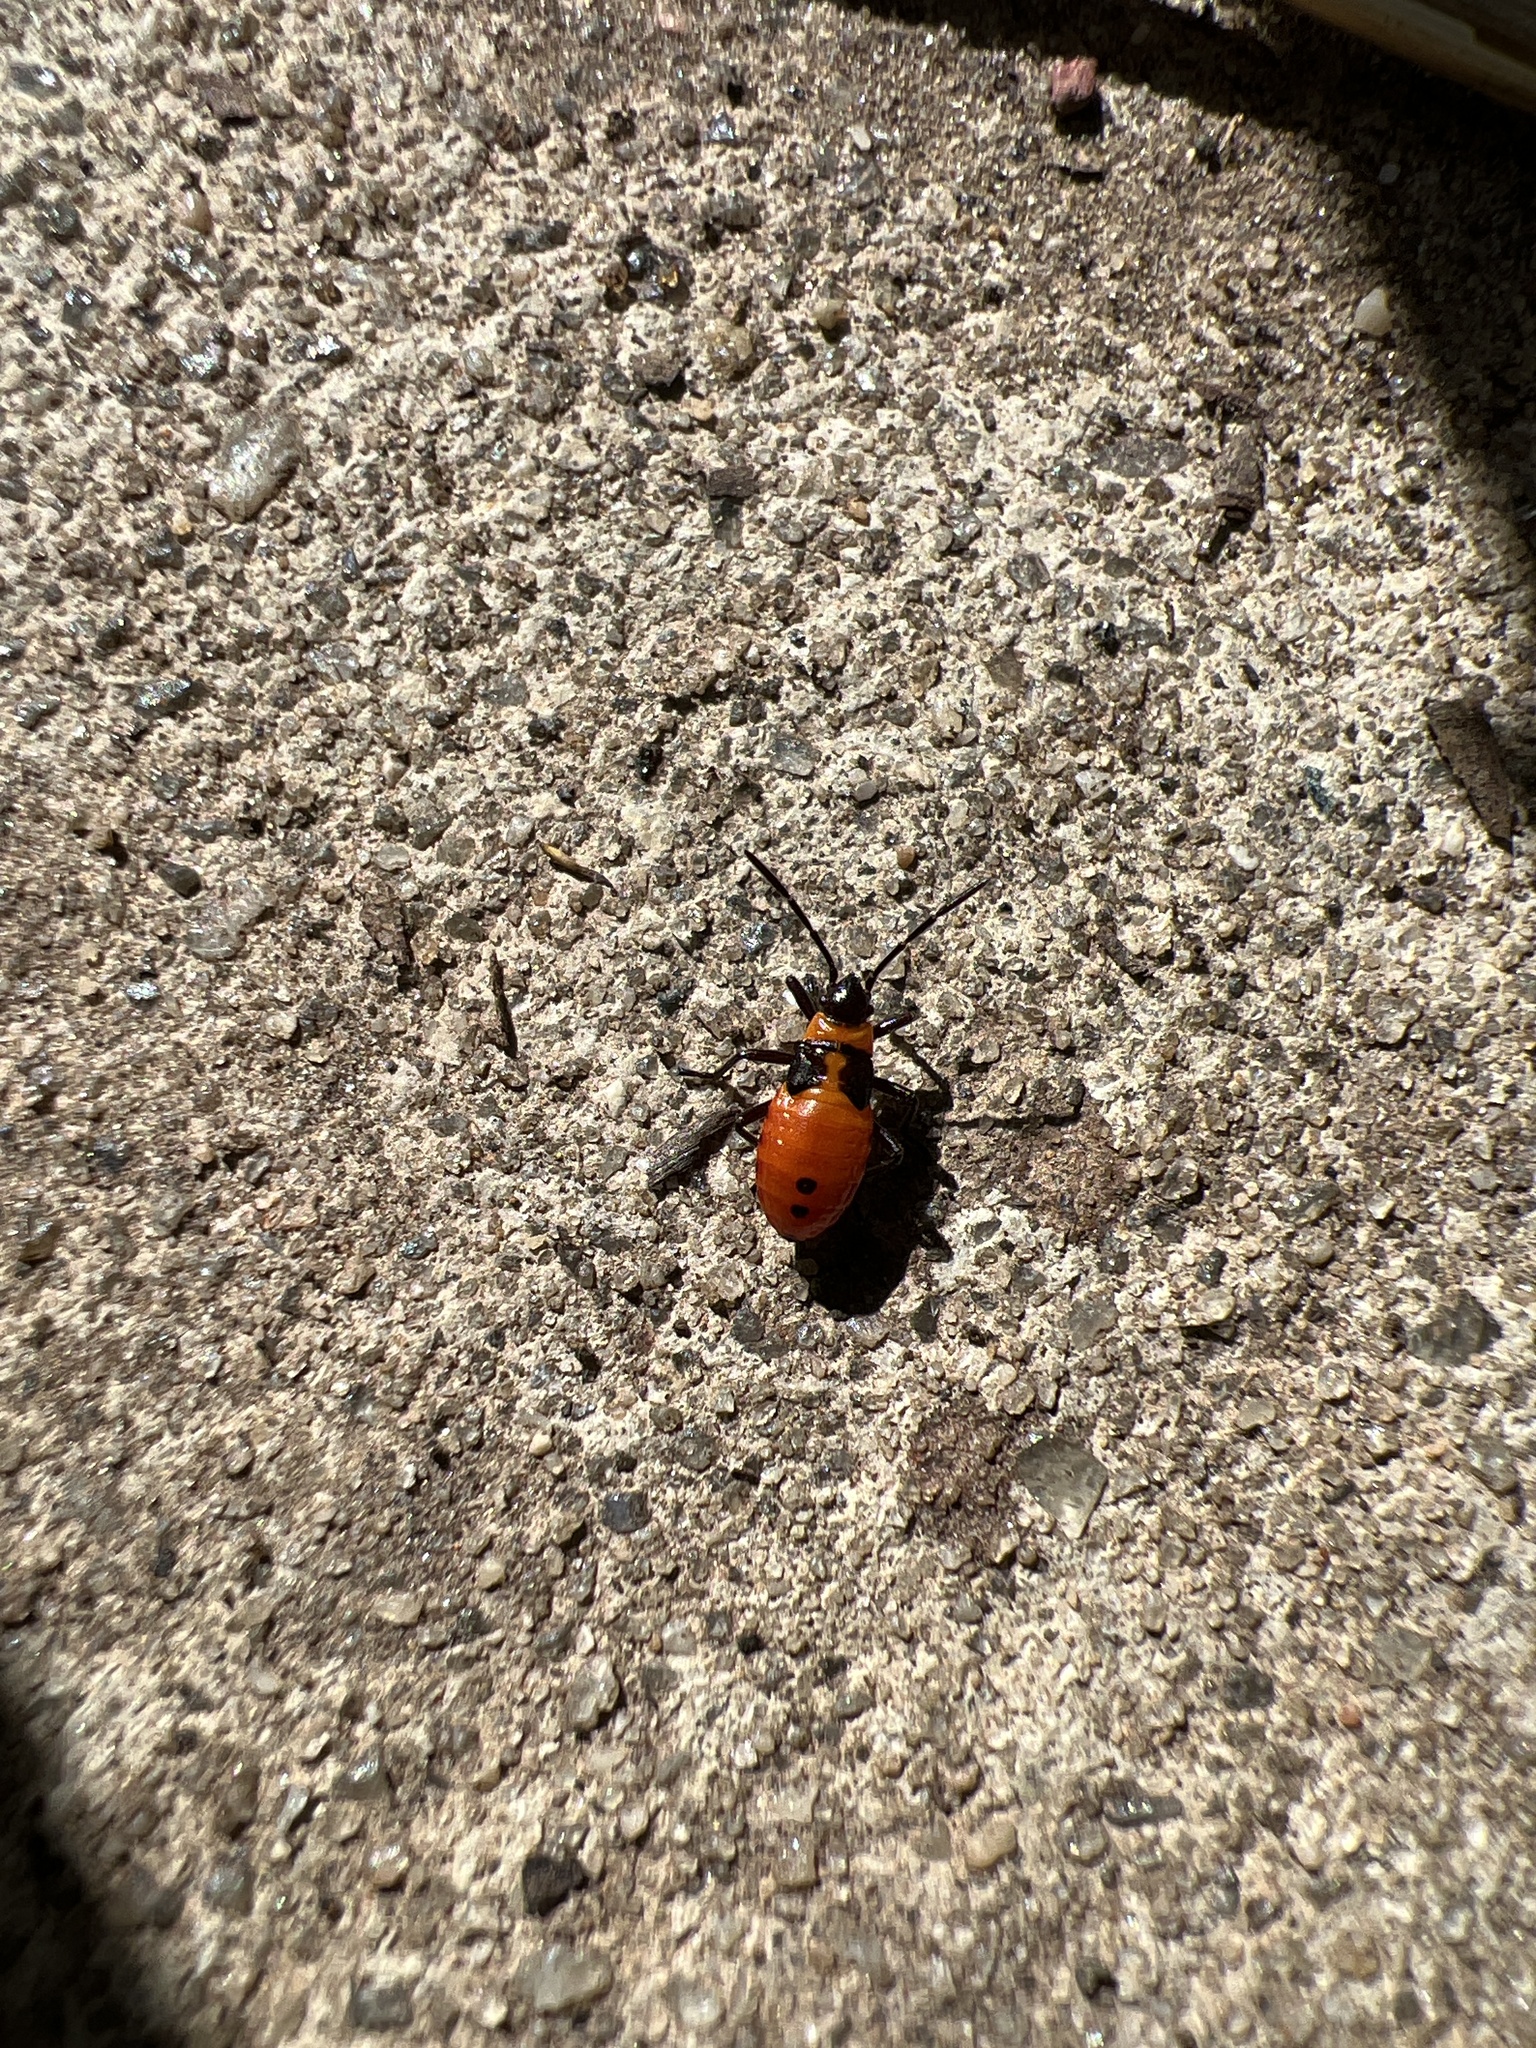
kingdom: Animalia
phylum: Arthropoda
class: Insecta
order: Hemiptera
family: Lygaeidae
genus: Oncopeltus
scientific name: Oncopeltus fasciatus
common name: Large milkweed bug
